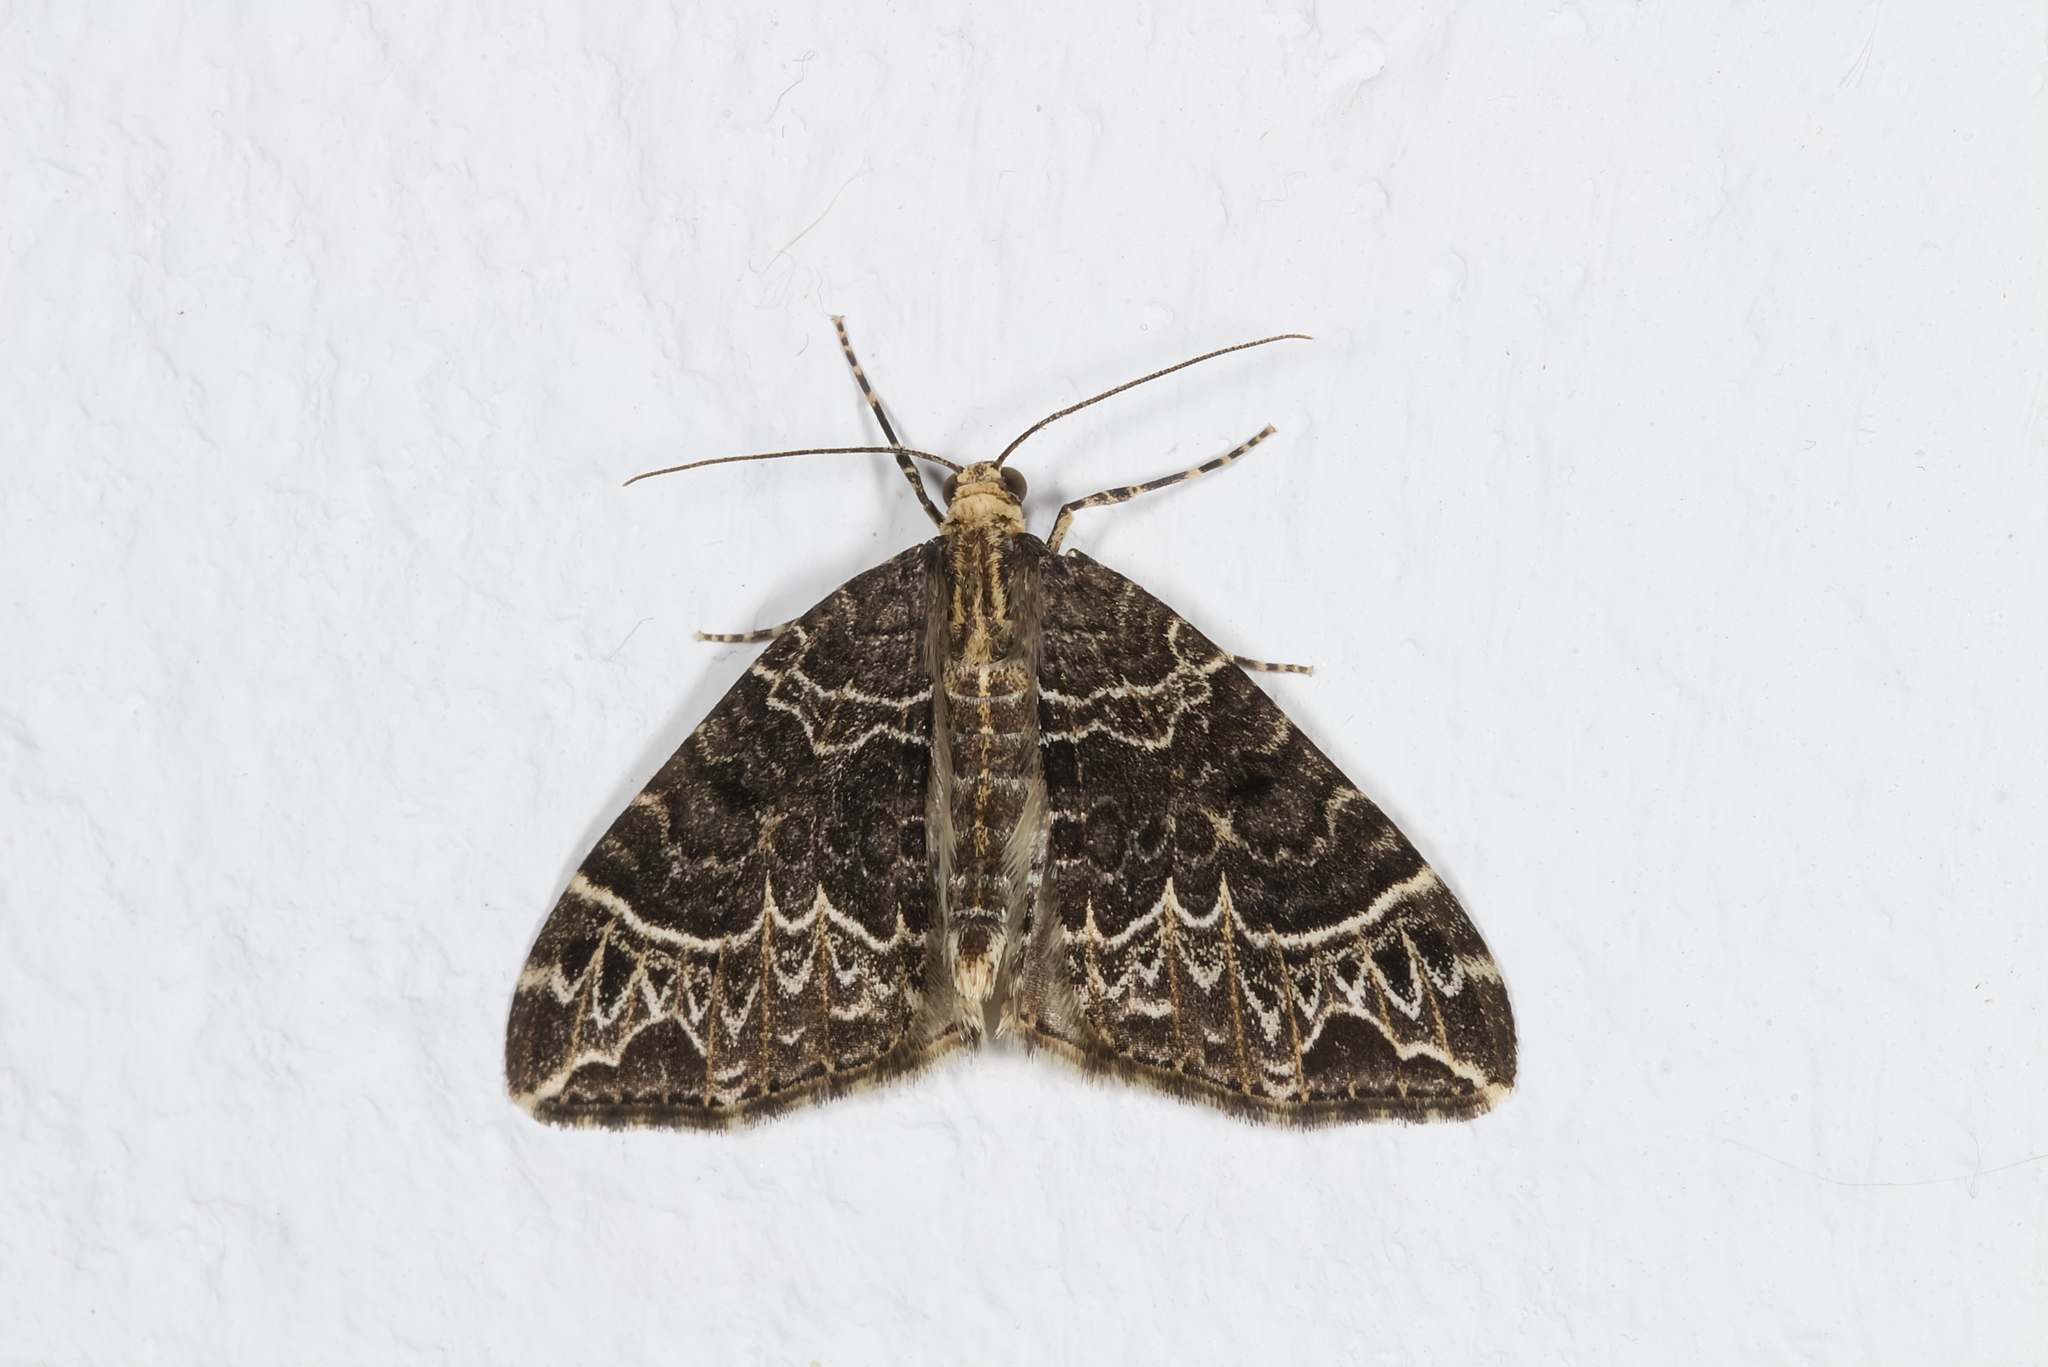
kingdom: Animalia
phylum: Arthropoda
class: Insecta
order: Lepidoptera
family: Geometridae
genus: Ecliptopera
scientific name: Ecliptopera silaceata
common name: Small phoenix
